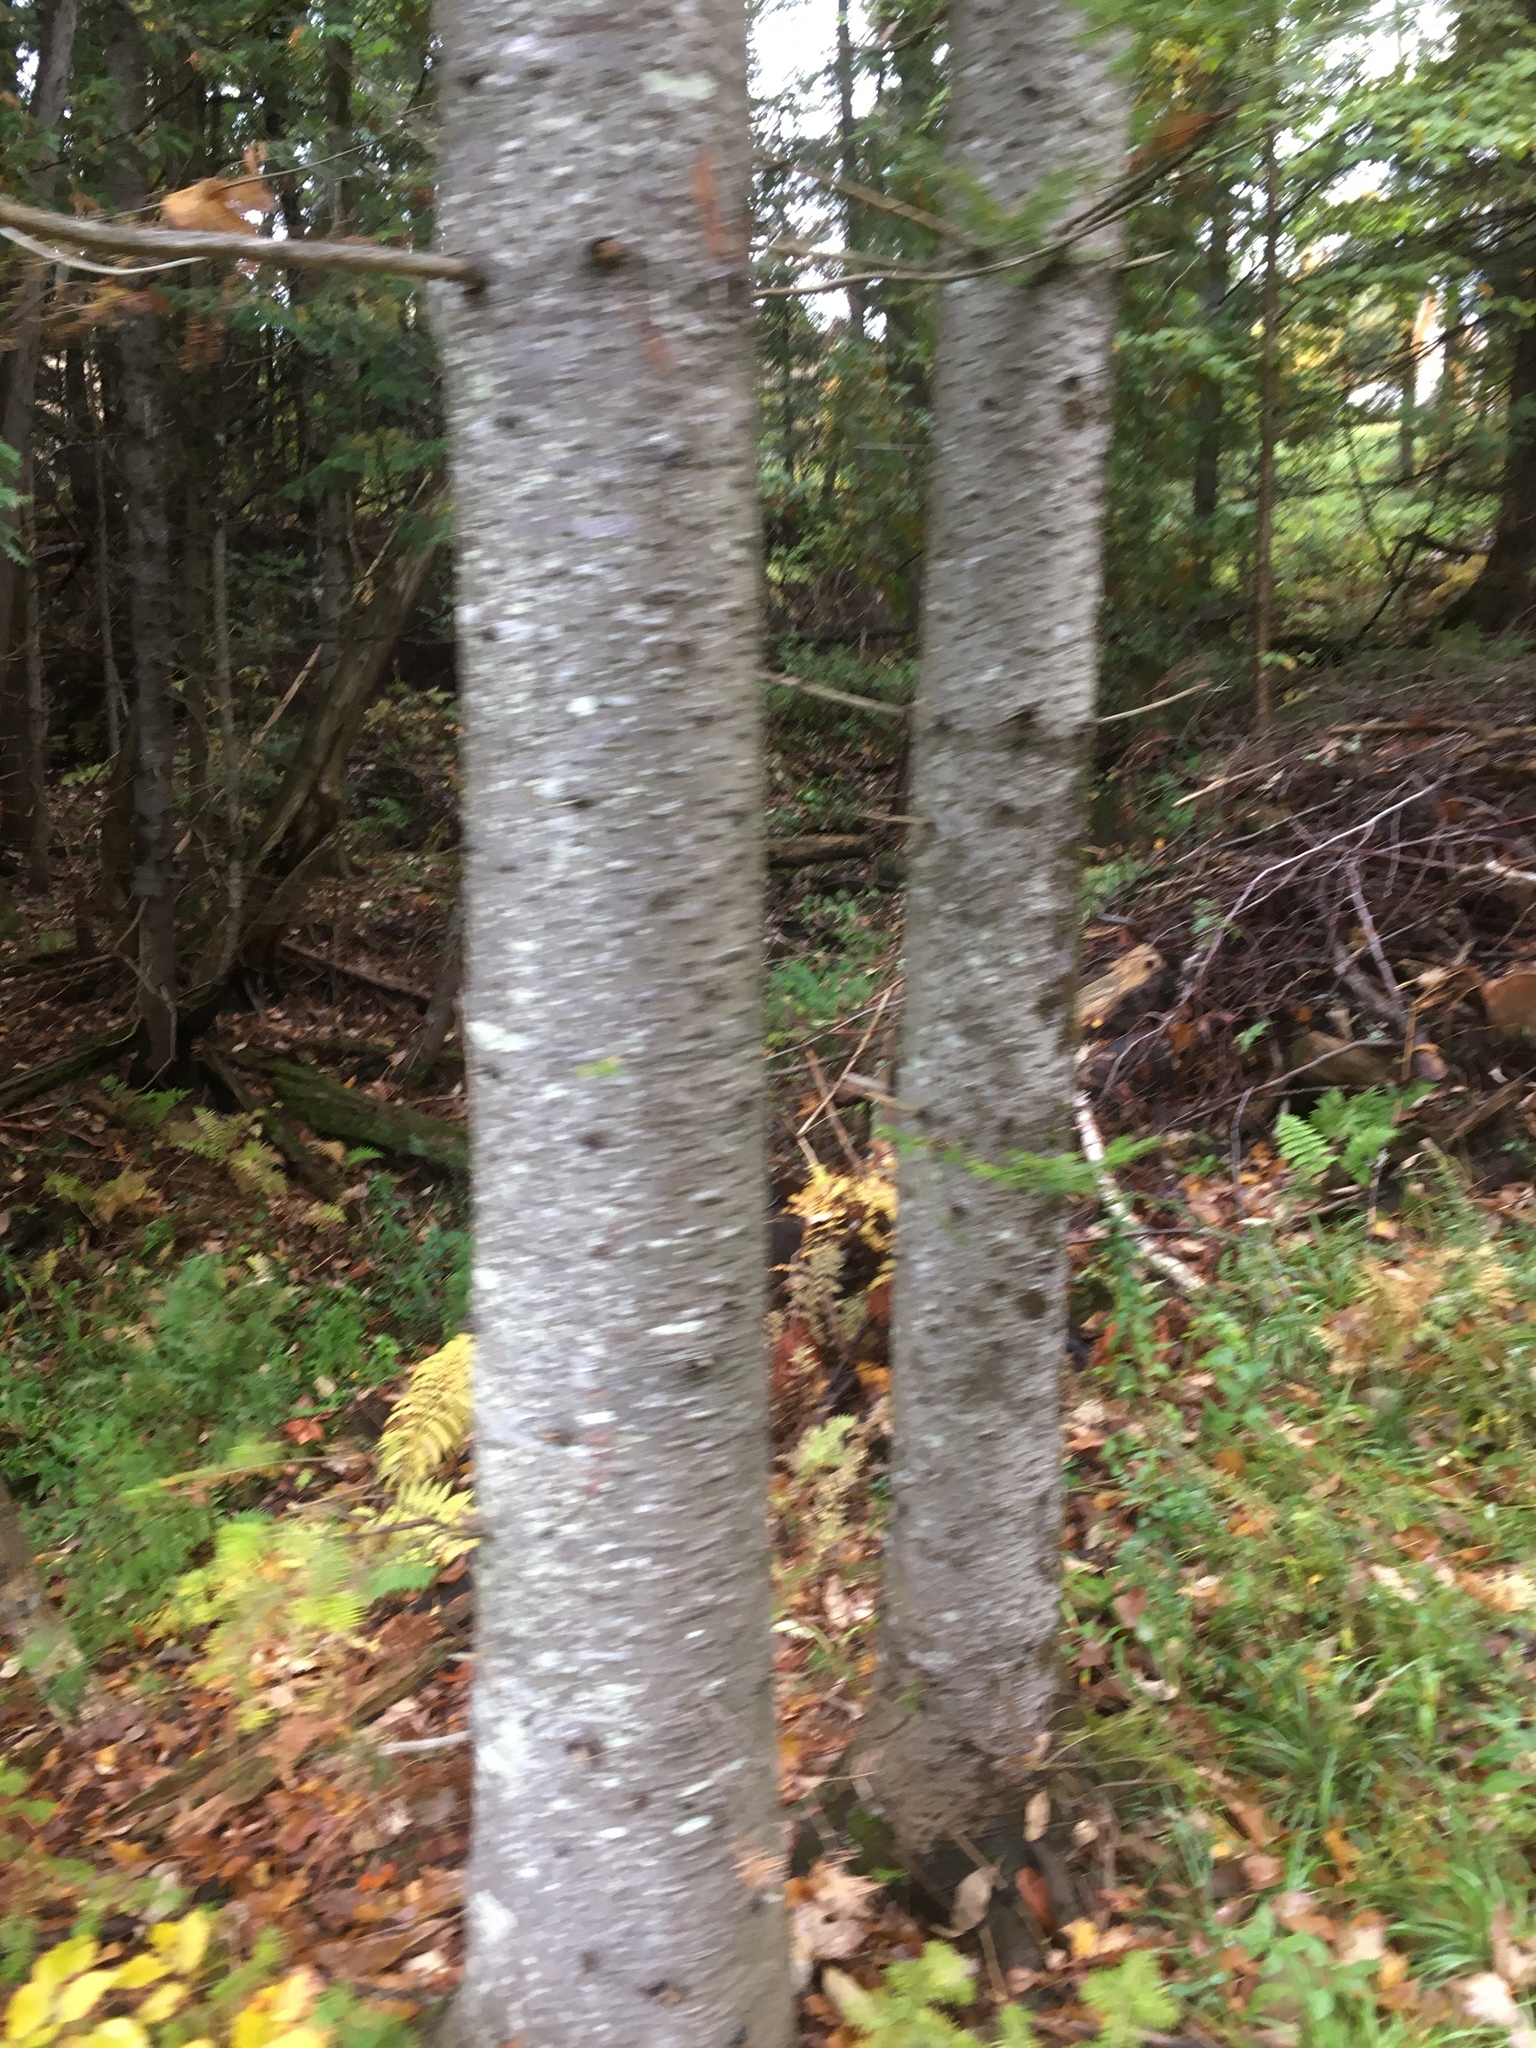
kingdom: Plantae
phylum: Tracheophyta
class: Pinopsida
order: Pinales
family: Pinaceae
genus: Abies
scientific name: Abies balsamea
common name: Balsam fir
